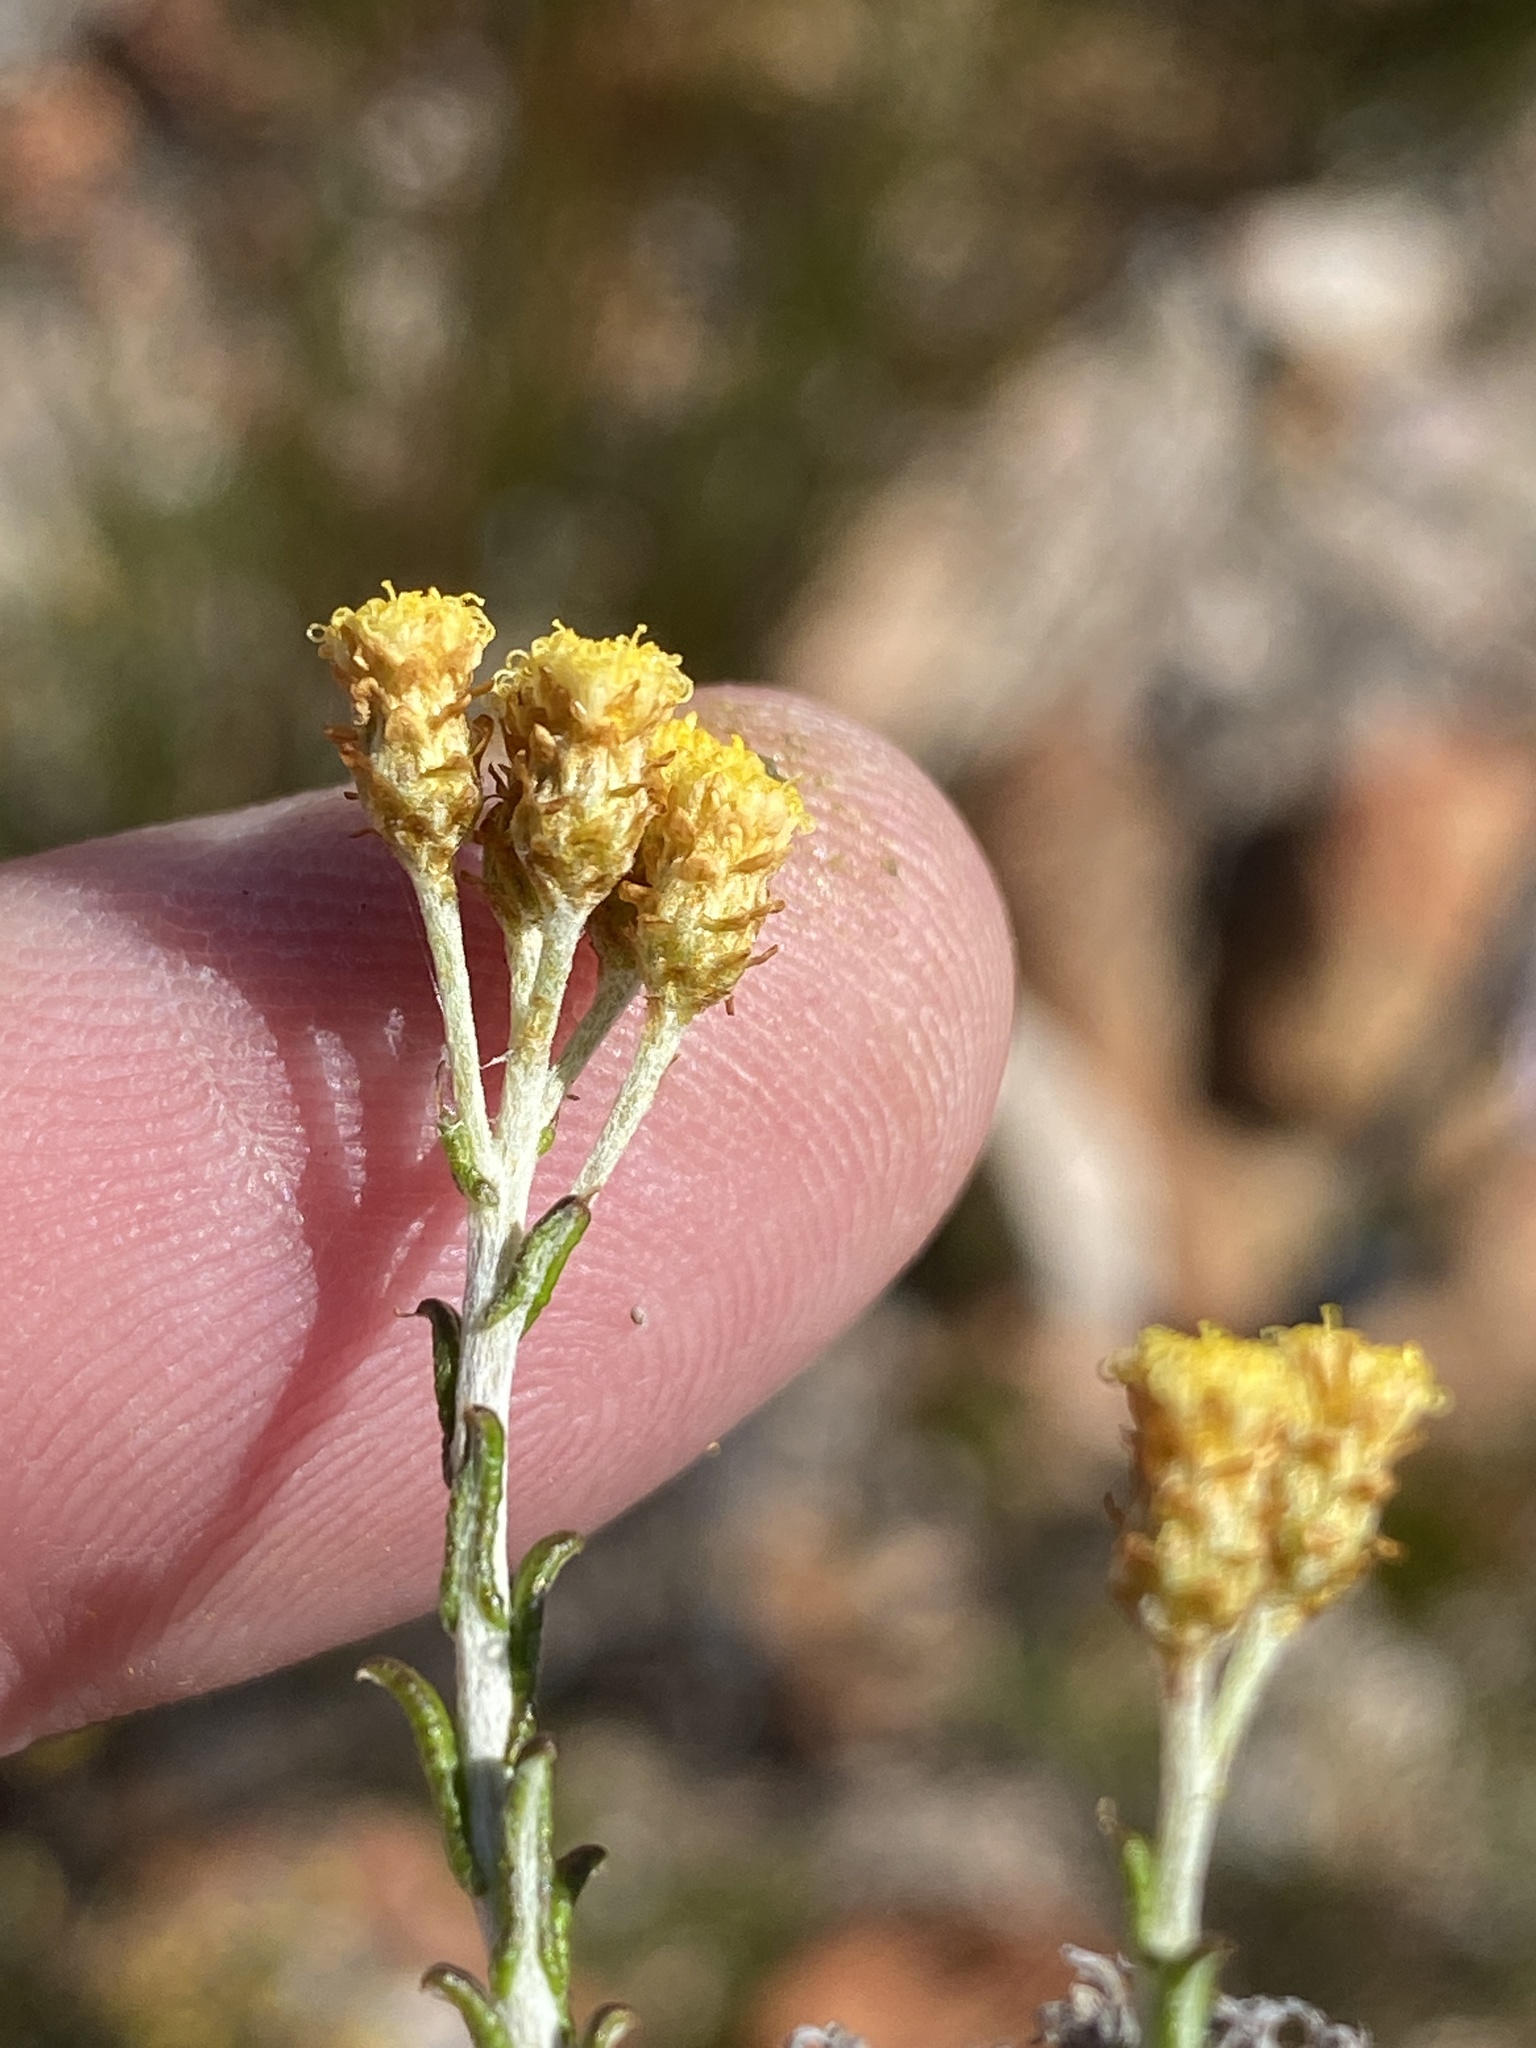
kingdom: Plantae
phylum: Tracheophyta
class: Magnoliopsida
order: Asterales
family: Asteraceae
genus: Helichrysum
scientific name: Helichrysum rosum
